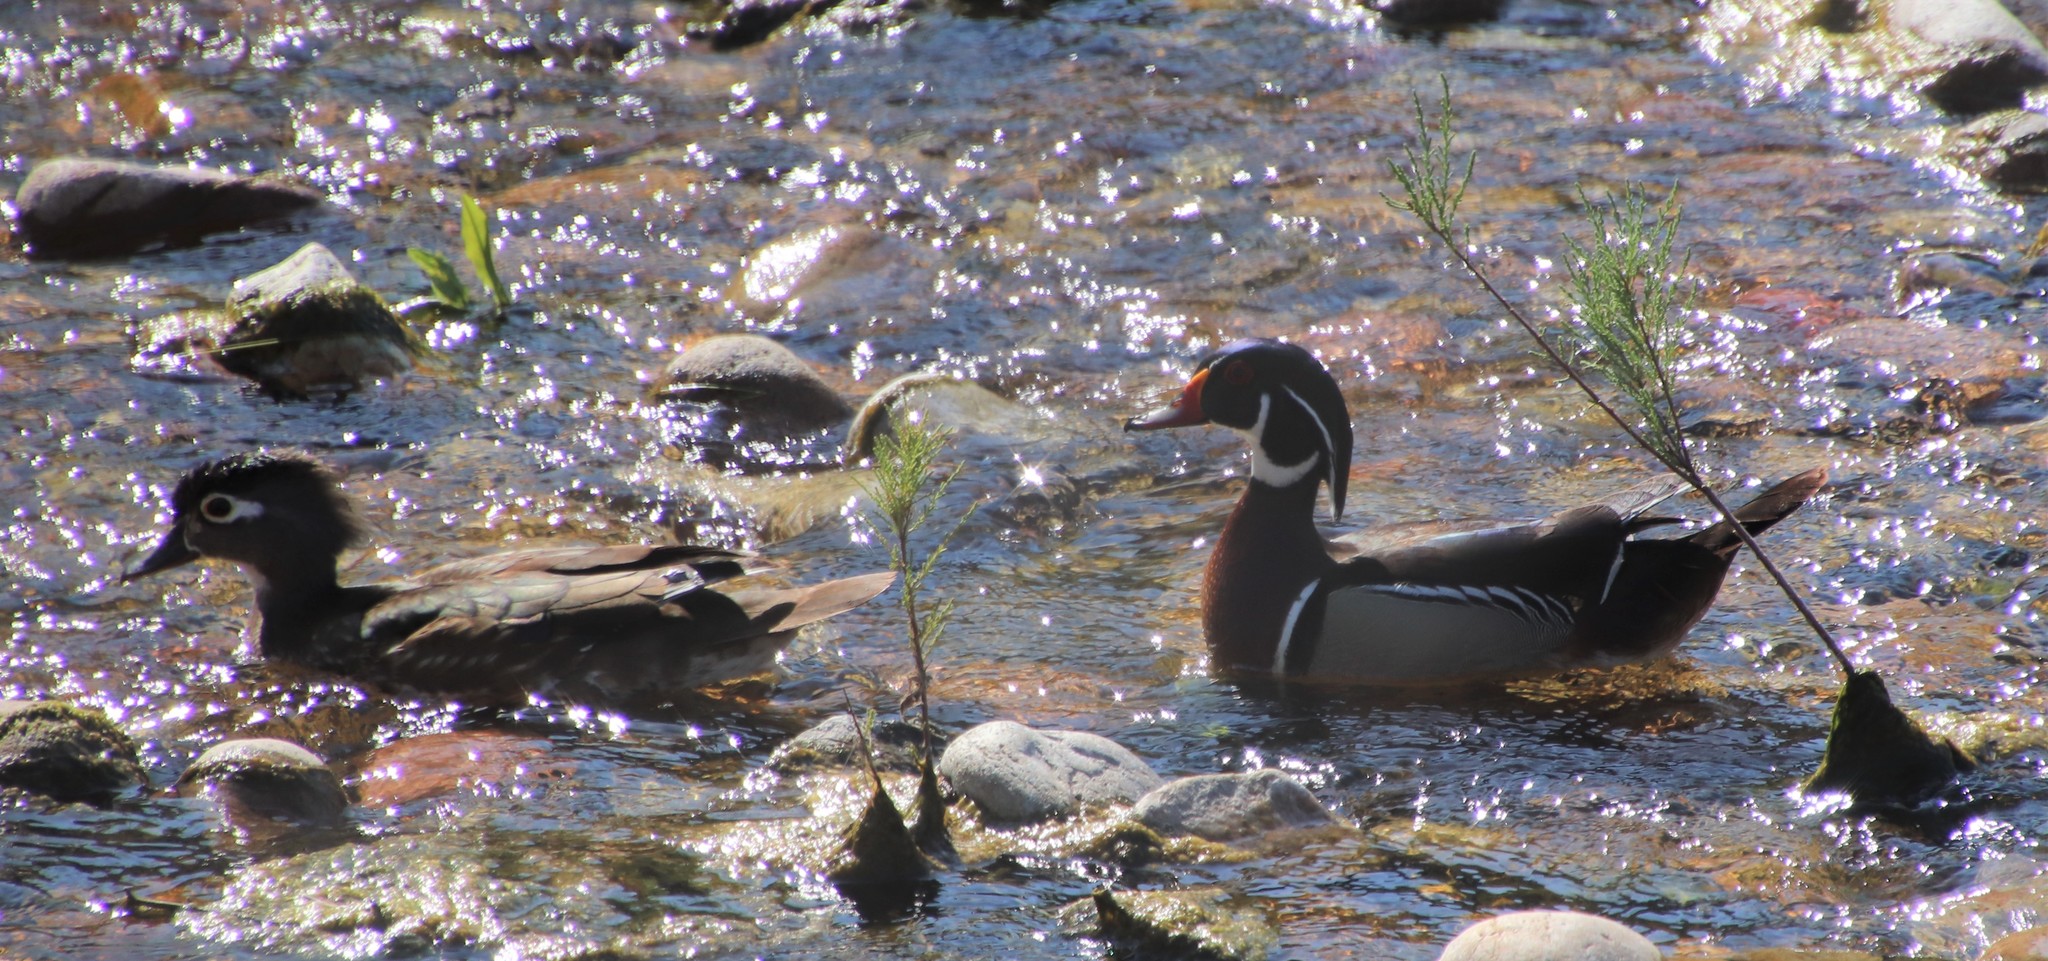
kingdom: Animalia
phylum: Chordata
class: Aves
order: Anseriformes
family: Anatidae
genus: Aix
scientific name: Aix sponsa
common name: Wood duck
